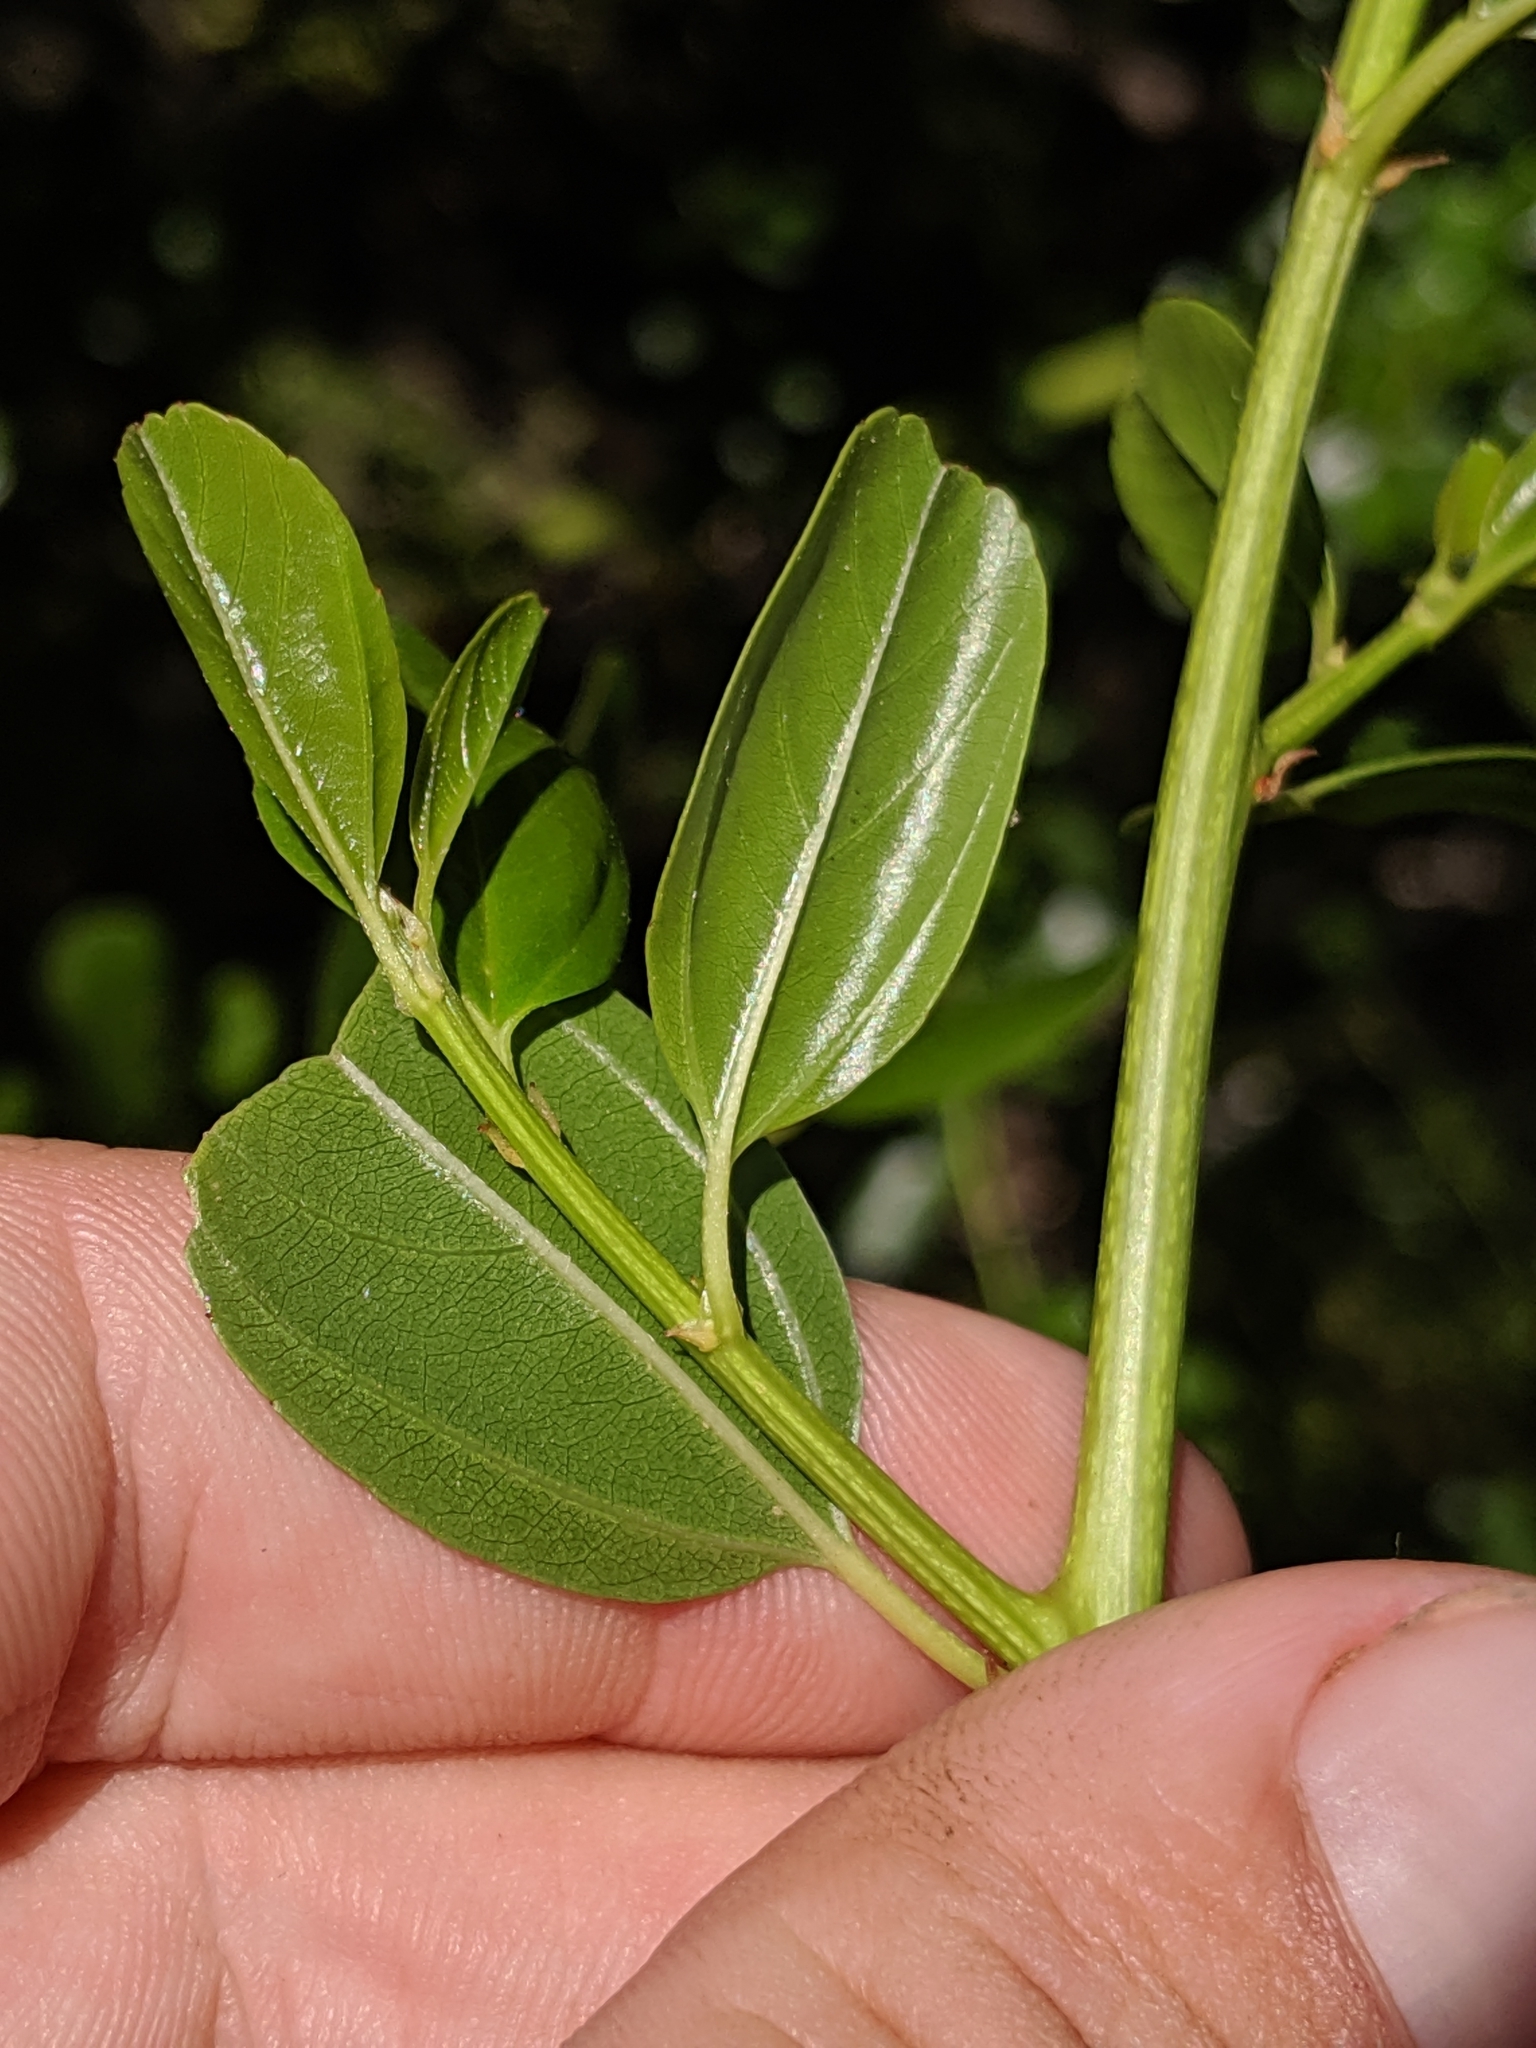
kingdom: Plantae
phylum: Tracheophyta
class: Magnoliopsida
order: Rosales
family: Rhamnaceae
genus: Ceanothus
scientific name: Ceanothus spinosus
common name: Greenbark whitethorn
